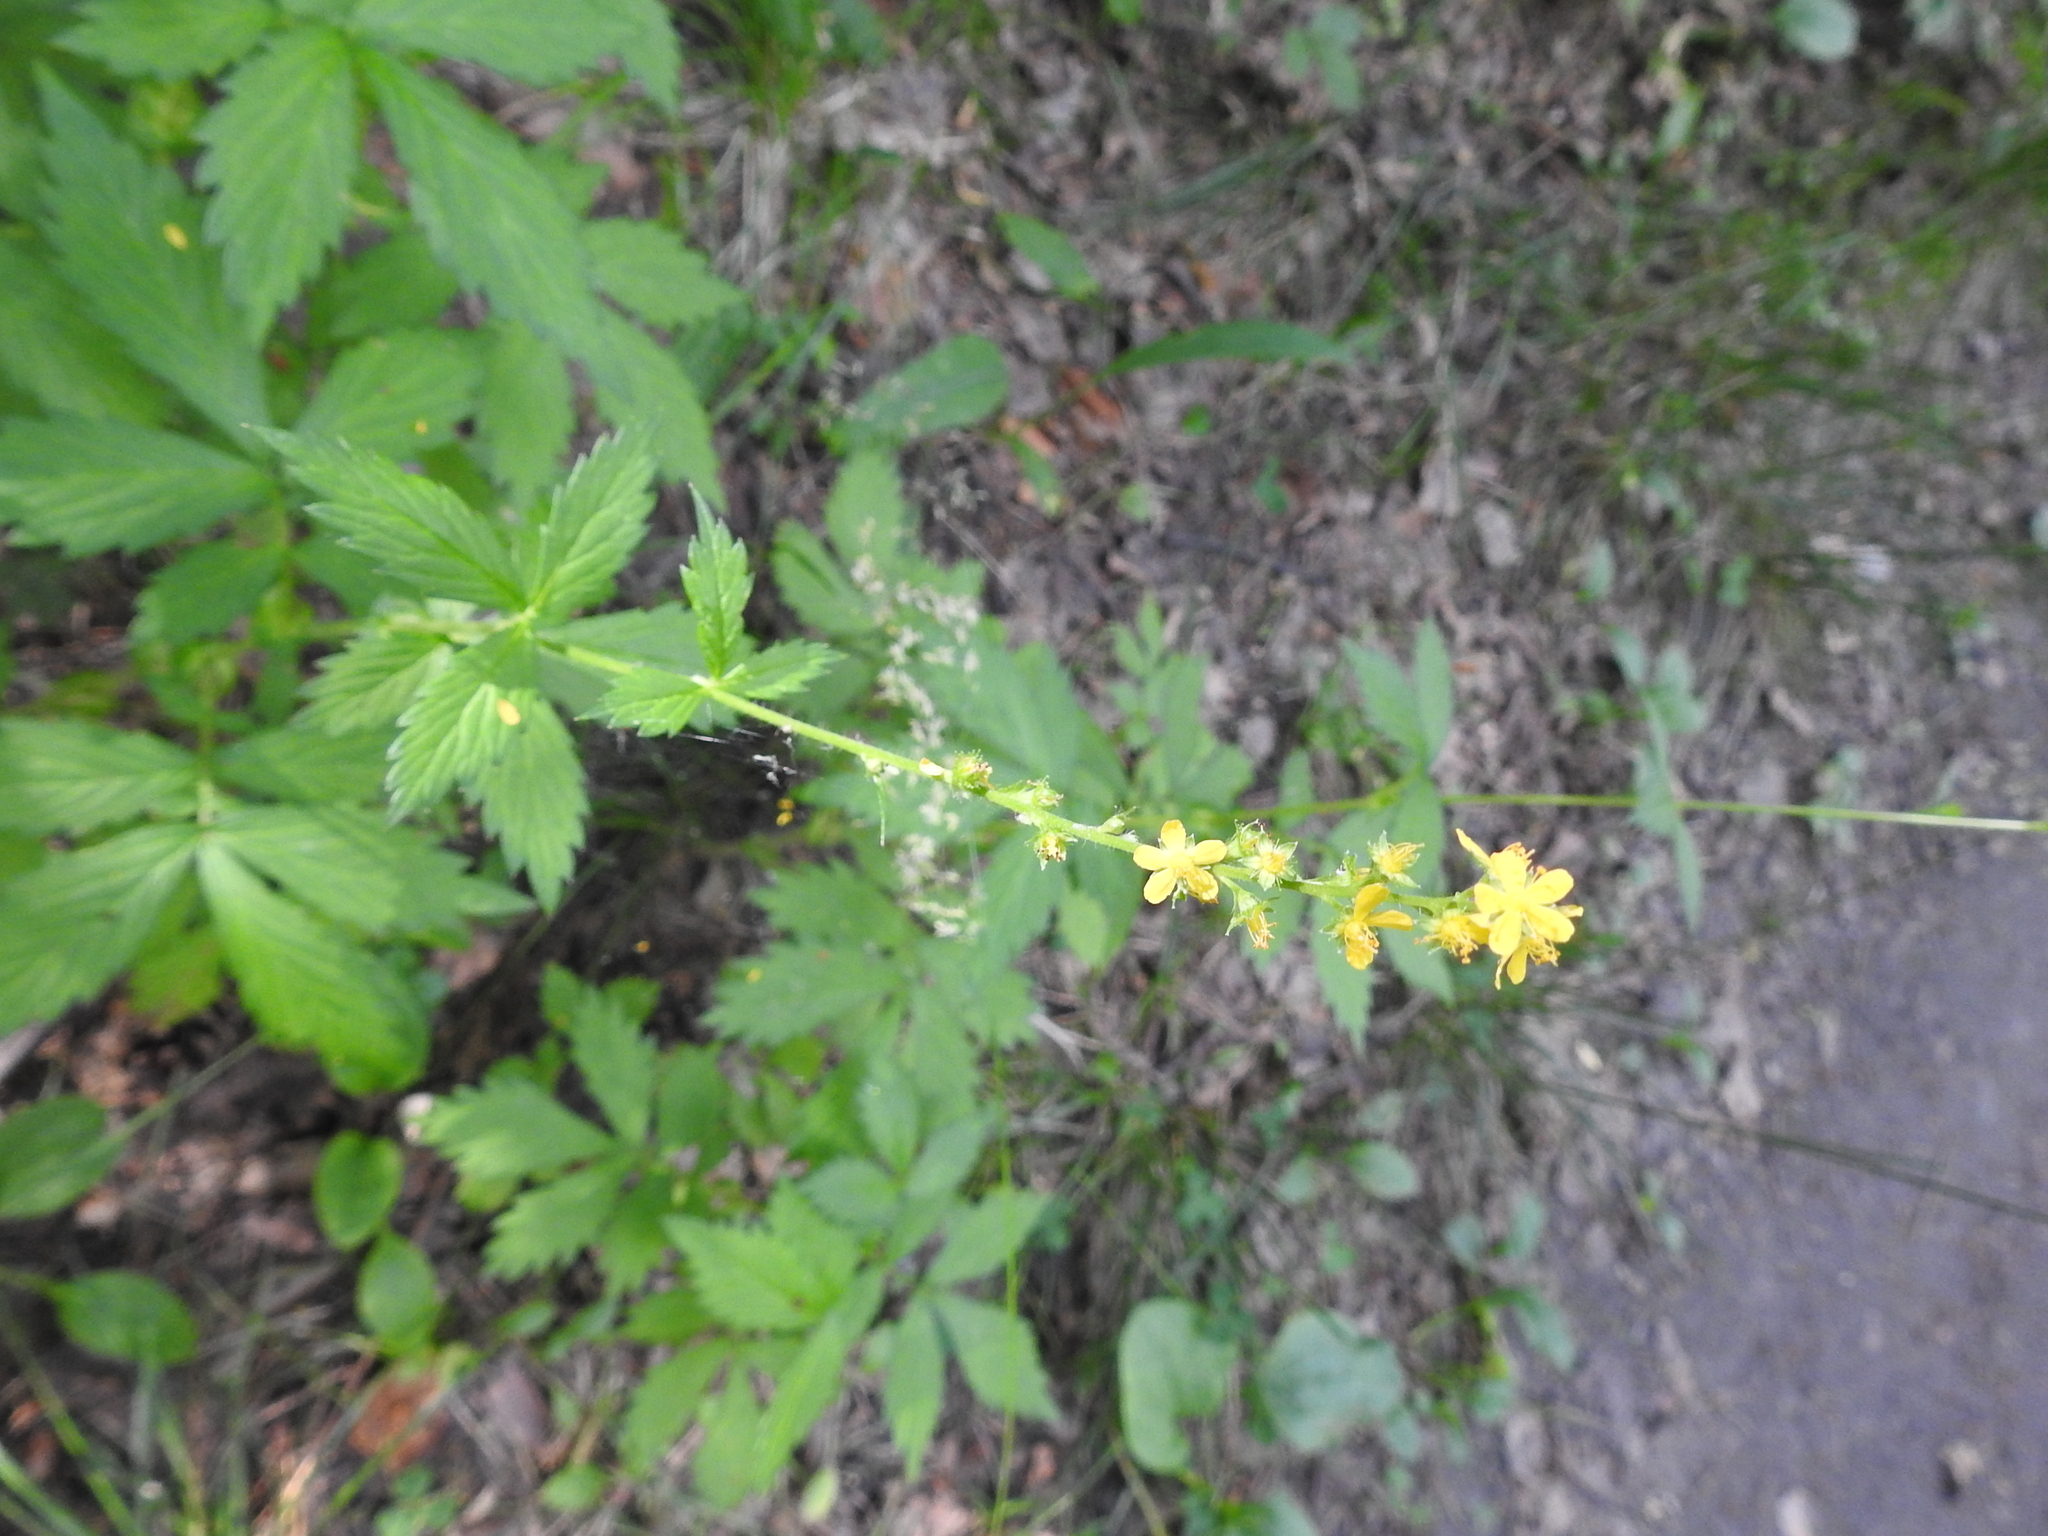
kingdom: Plantae
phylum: Tracheophyta
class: Magnoliopsida
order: Rosales
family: Rosaceae
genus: Agrimonia
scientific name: Agrimonia pilosa
